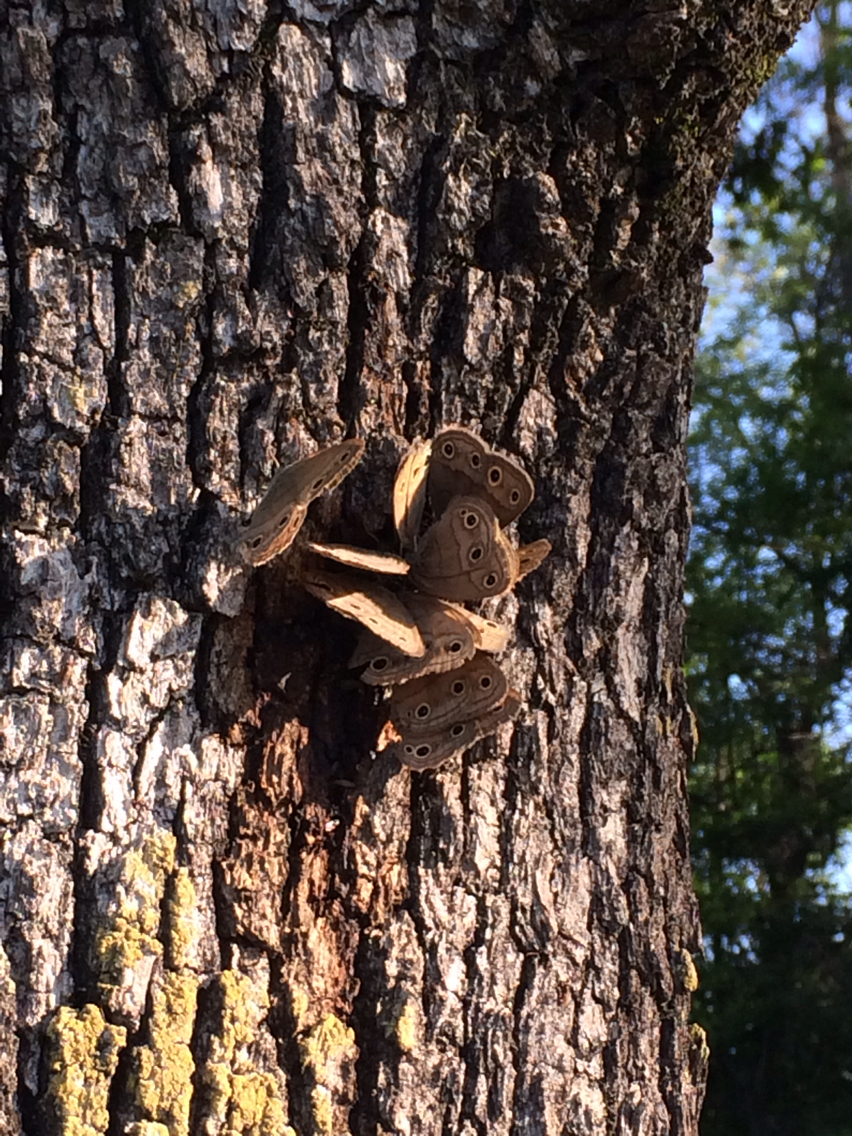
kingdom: Animalia
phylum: Arthropoda
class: Insecta
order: Lepidoptera
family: Nymphalidae
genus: Euptychia
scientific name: Euptychia cymela
